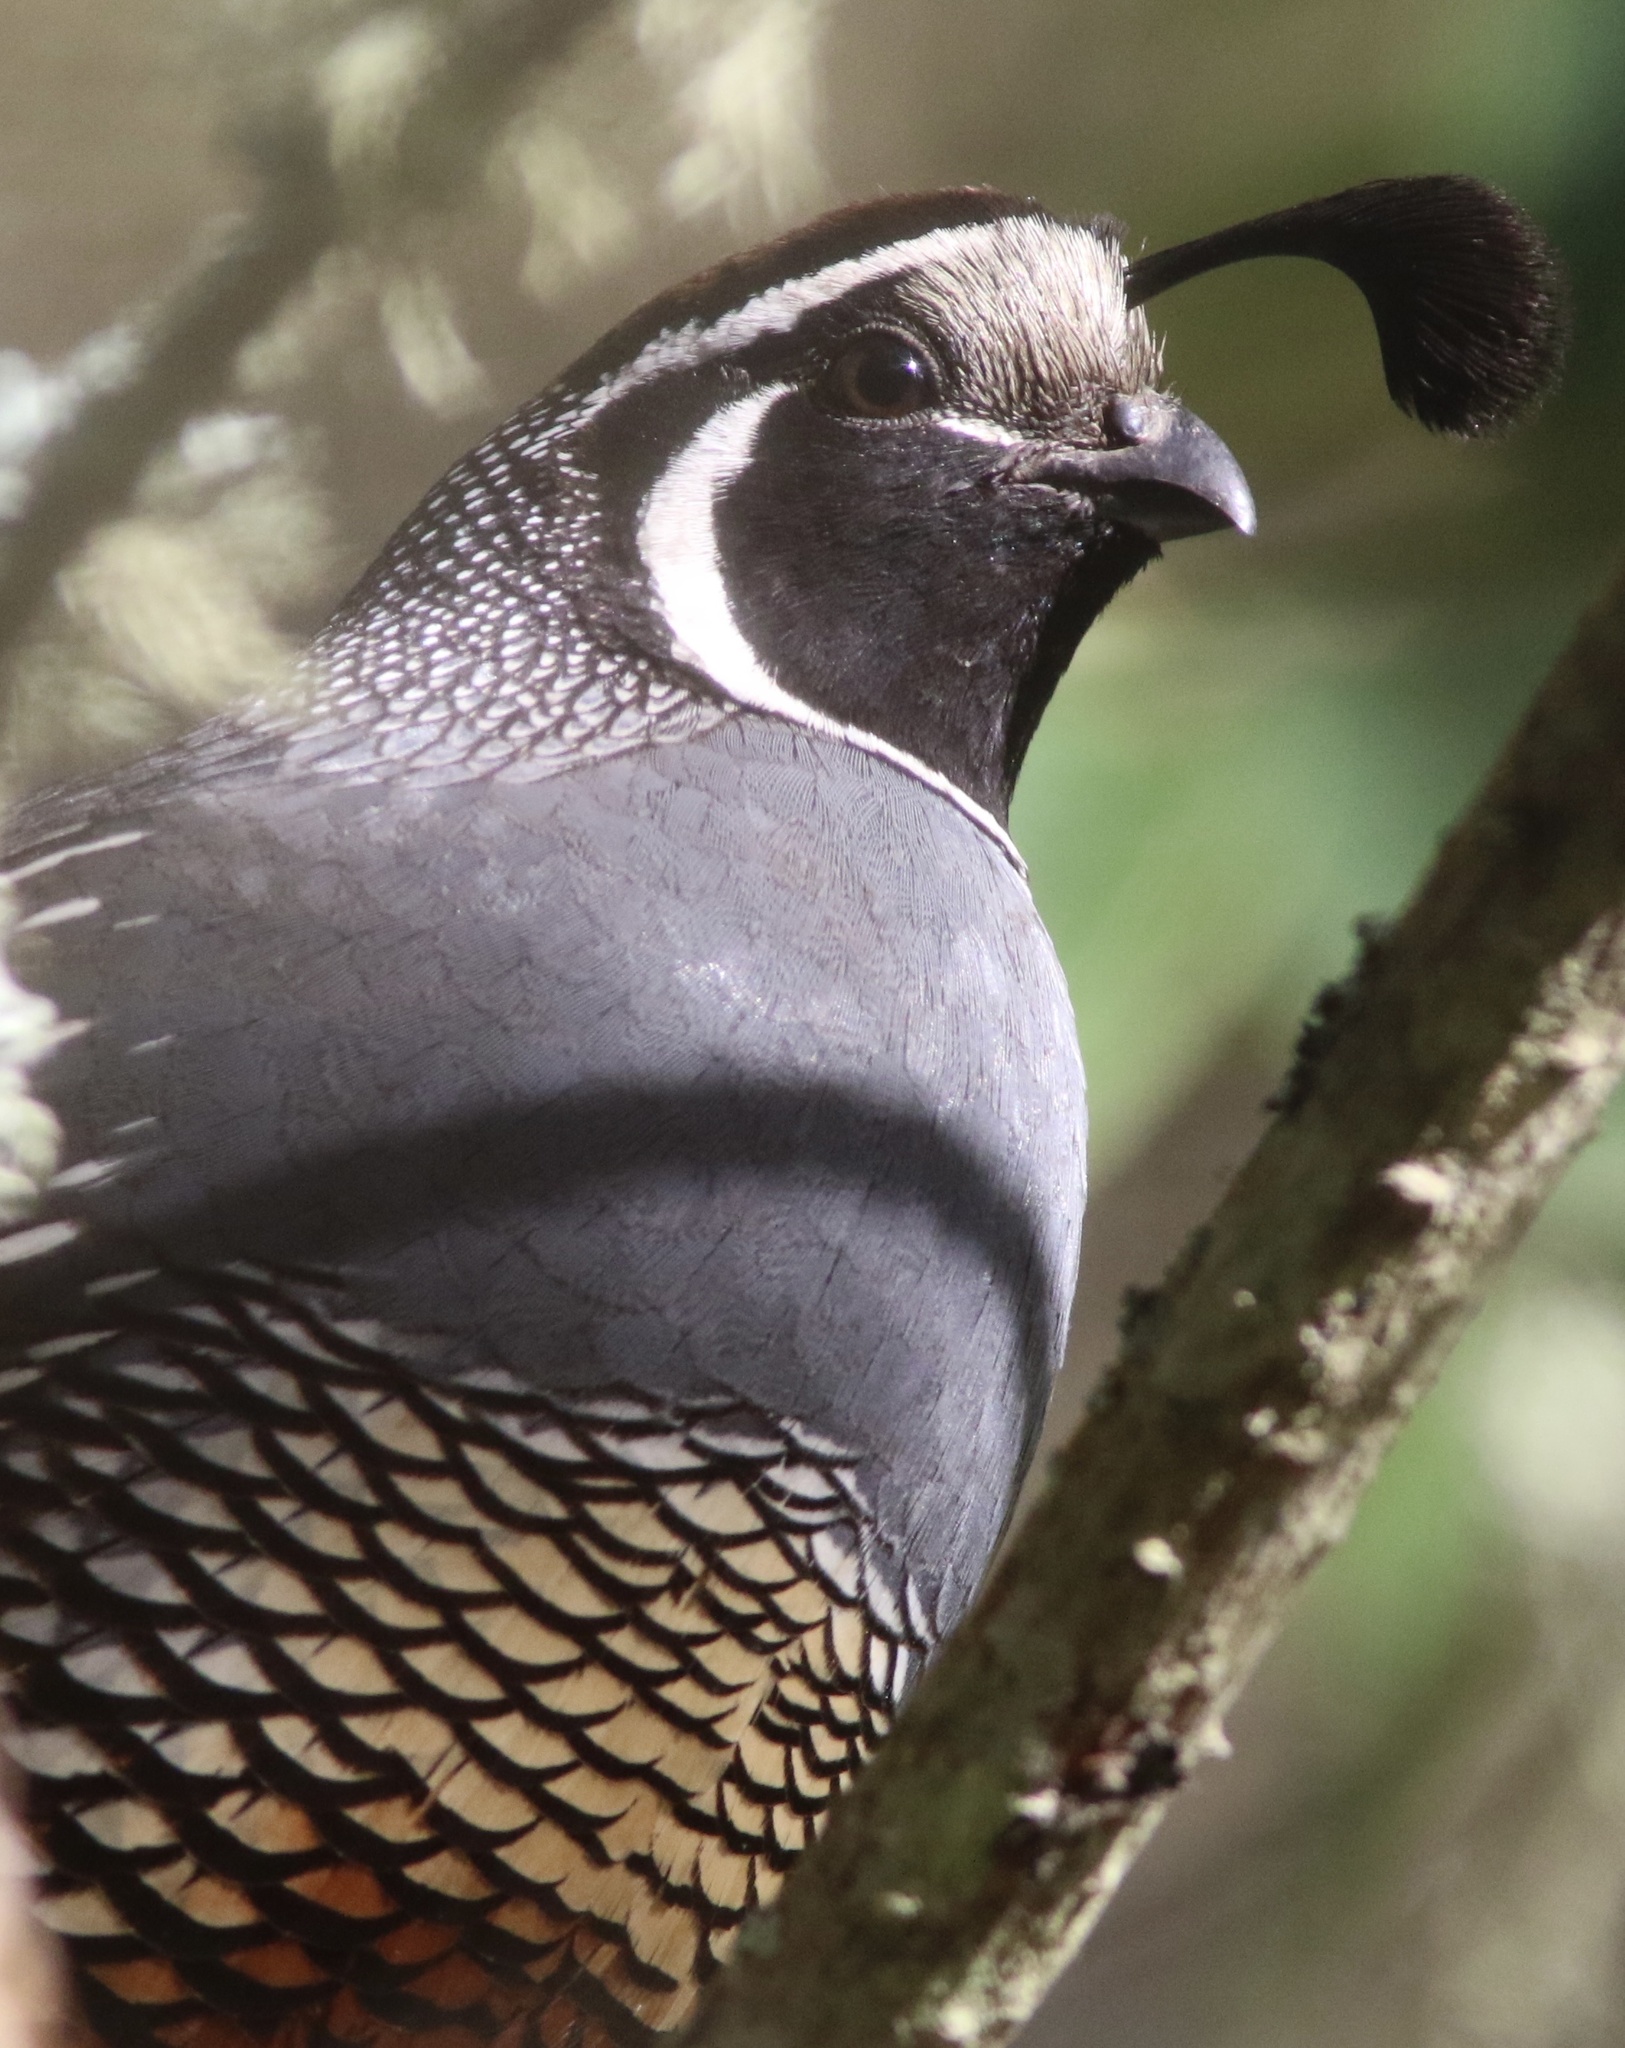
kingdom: Animalia
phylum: Chordata
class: Aves
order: Galliformes
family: Odontophoridae
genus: Callipepla
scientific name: Callipepla californica
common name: California quail
